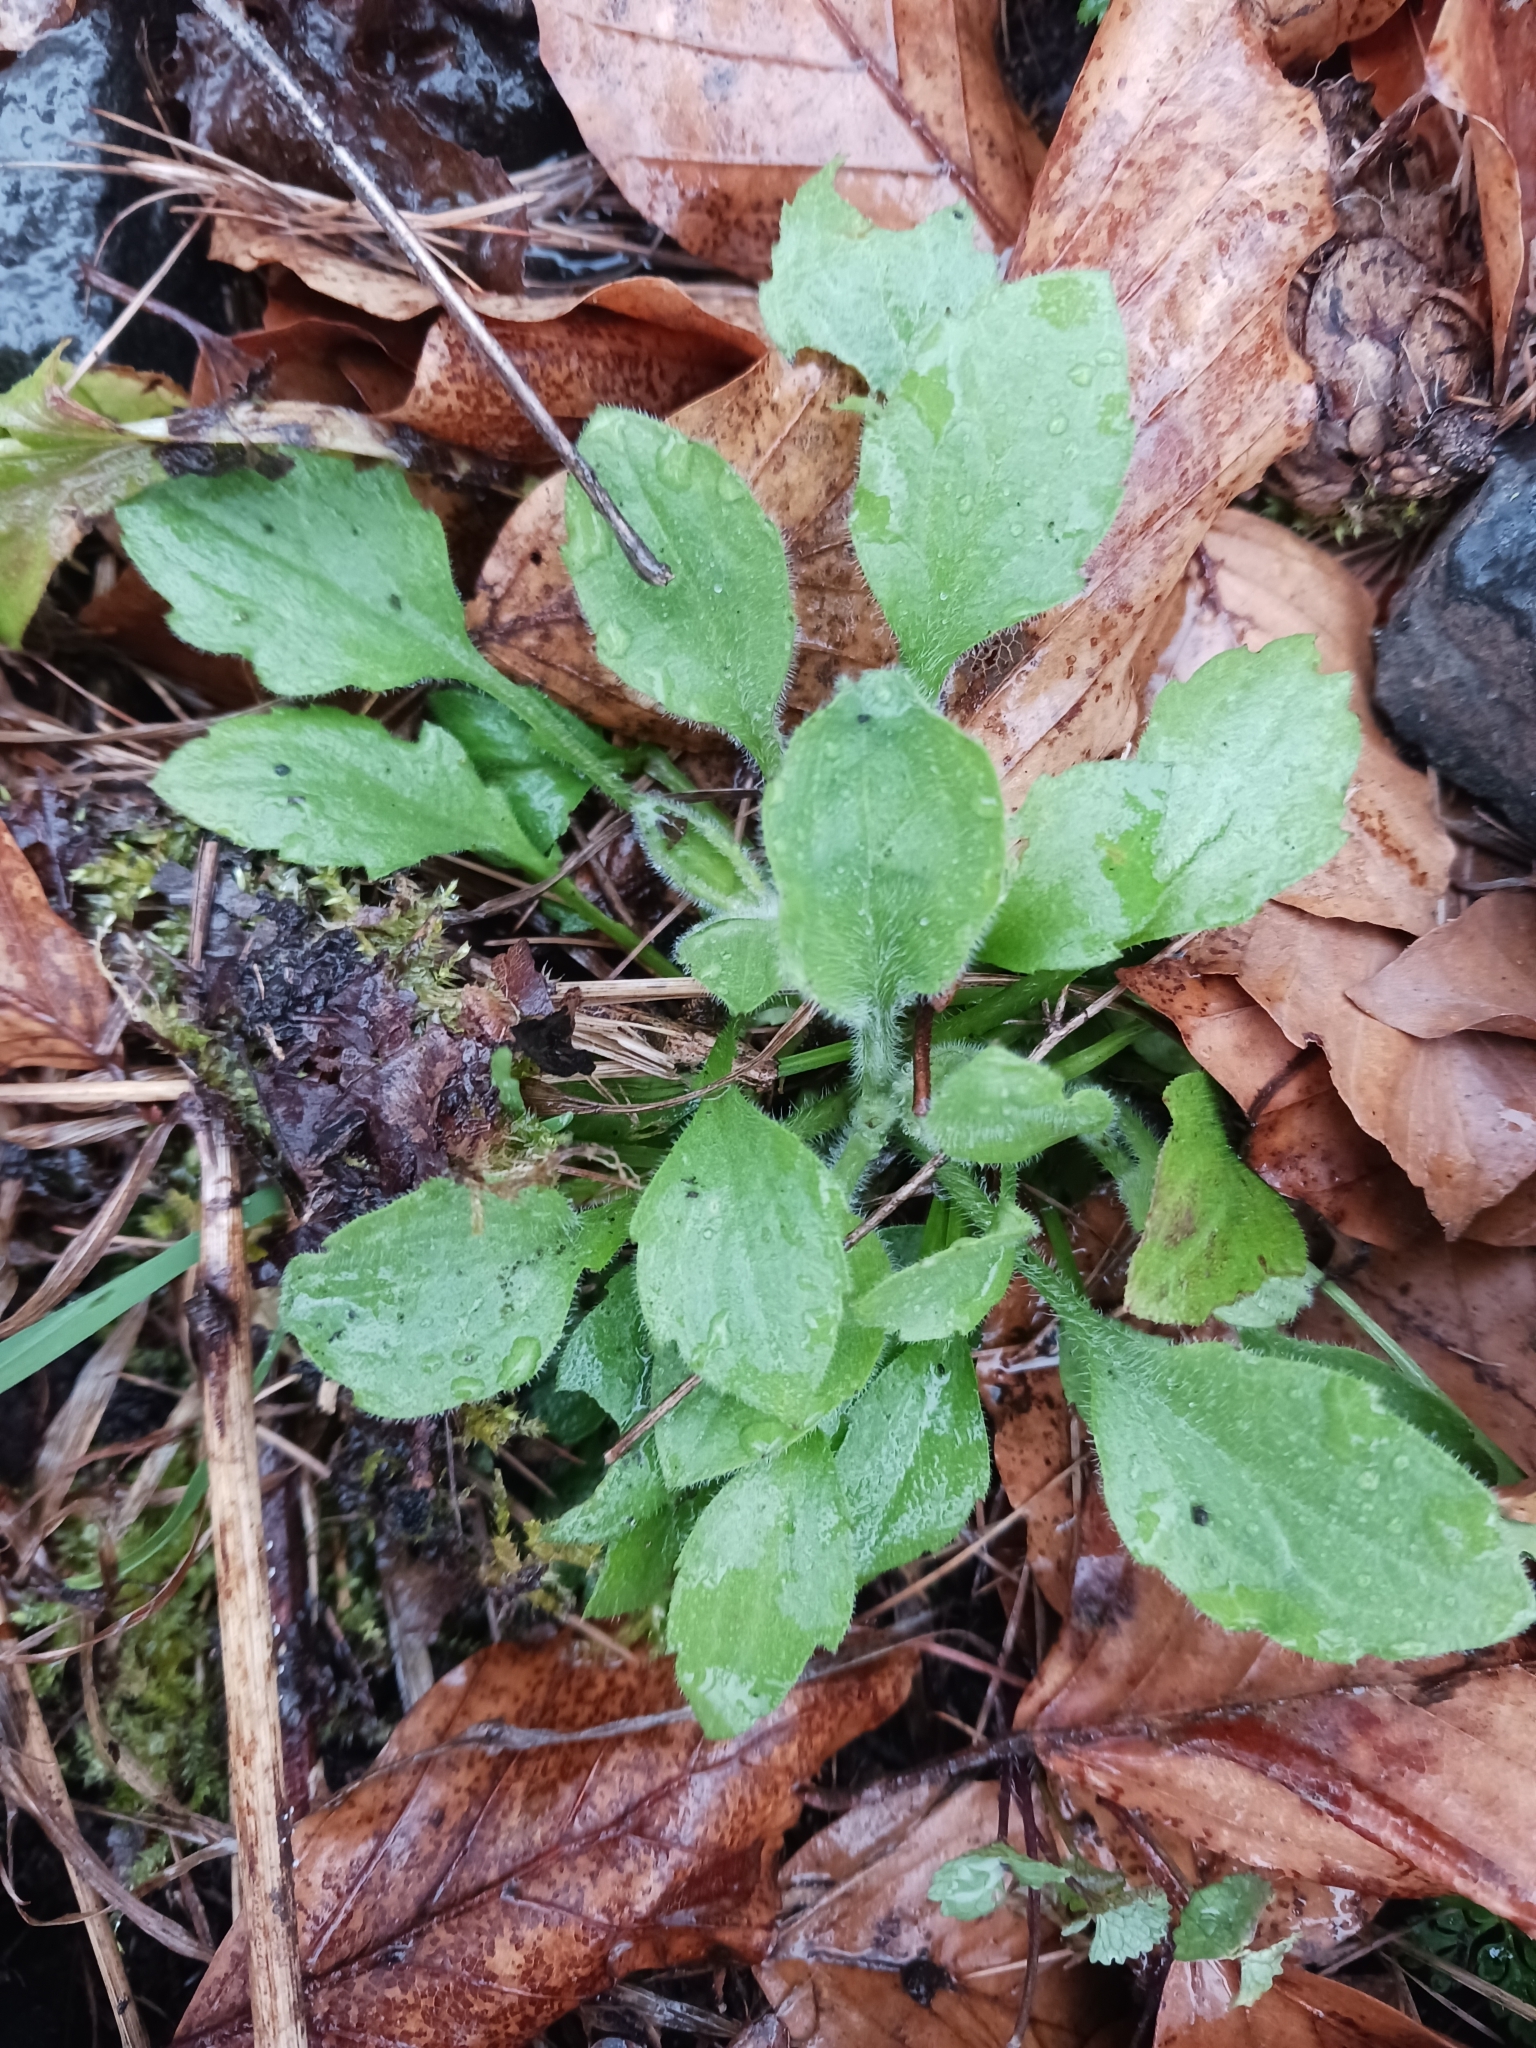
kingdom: Plantae
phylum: Tracheophyta
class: Magnoliopsida
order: Asterales
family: Asteraceae
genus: Erigeron
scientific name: Erigeron annuus
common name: Tall fleabane
